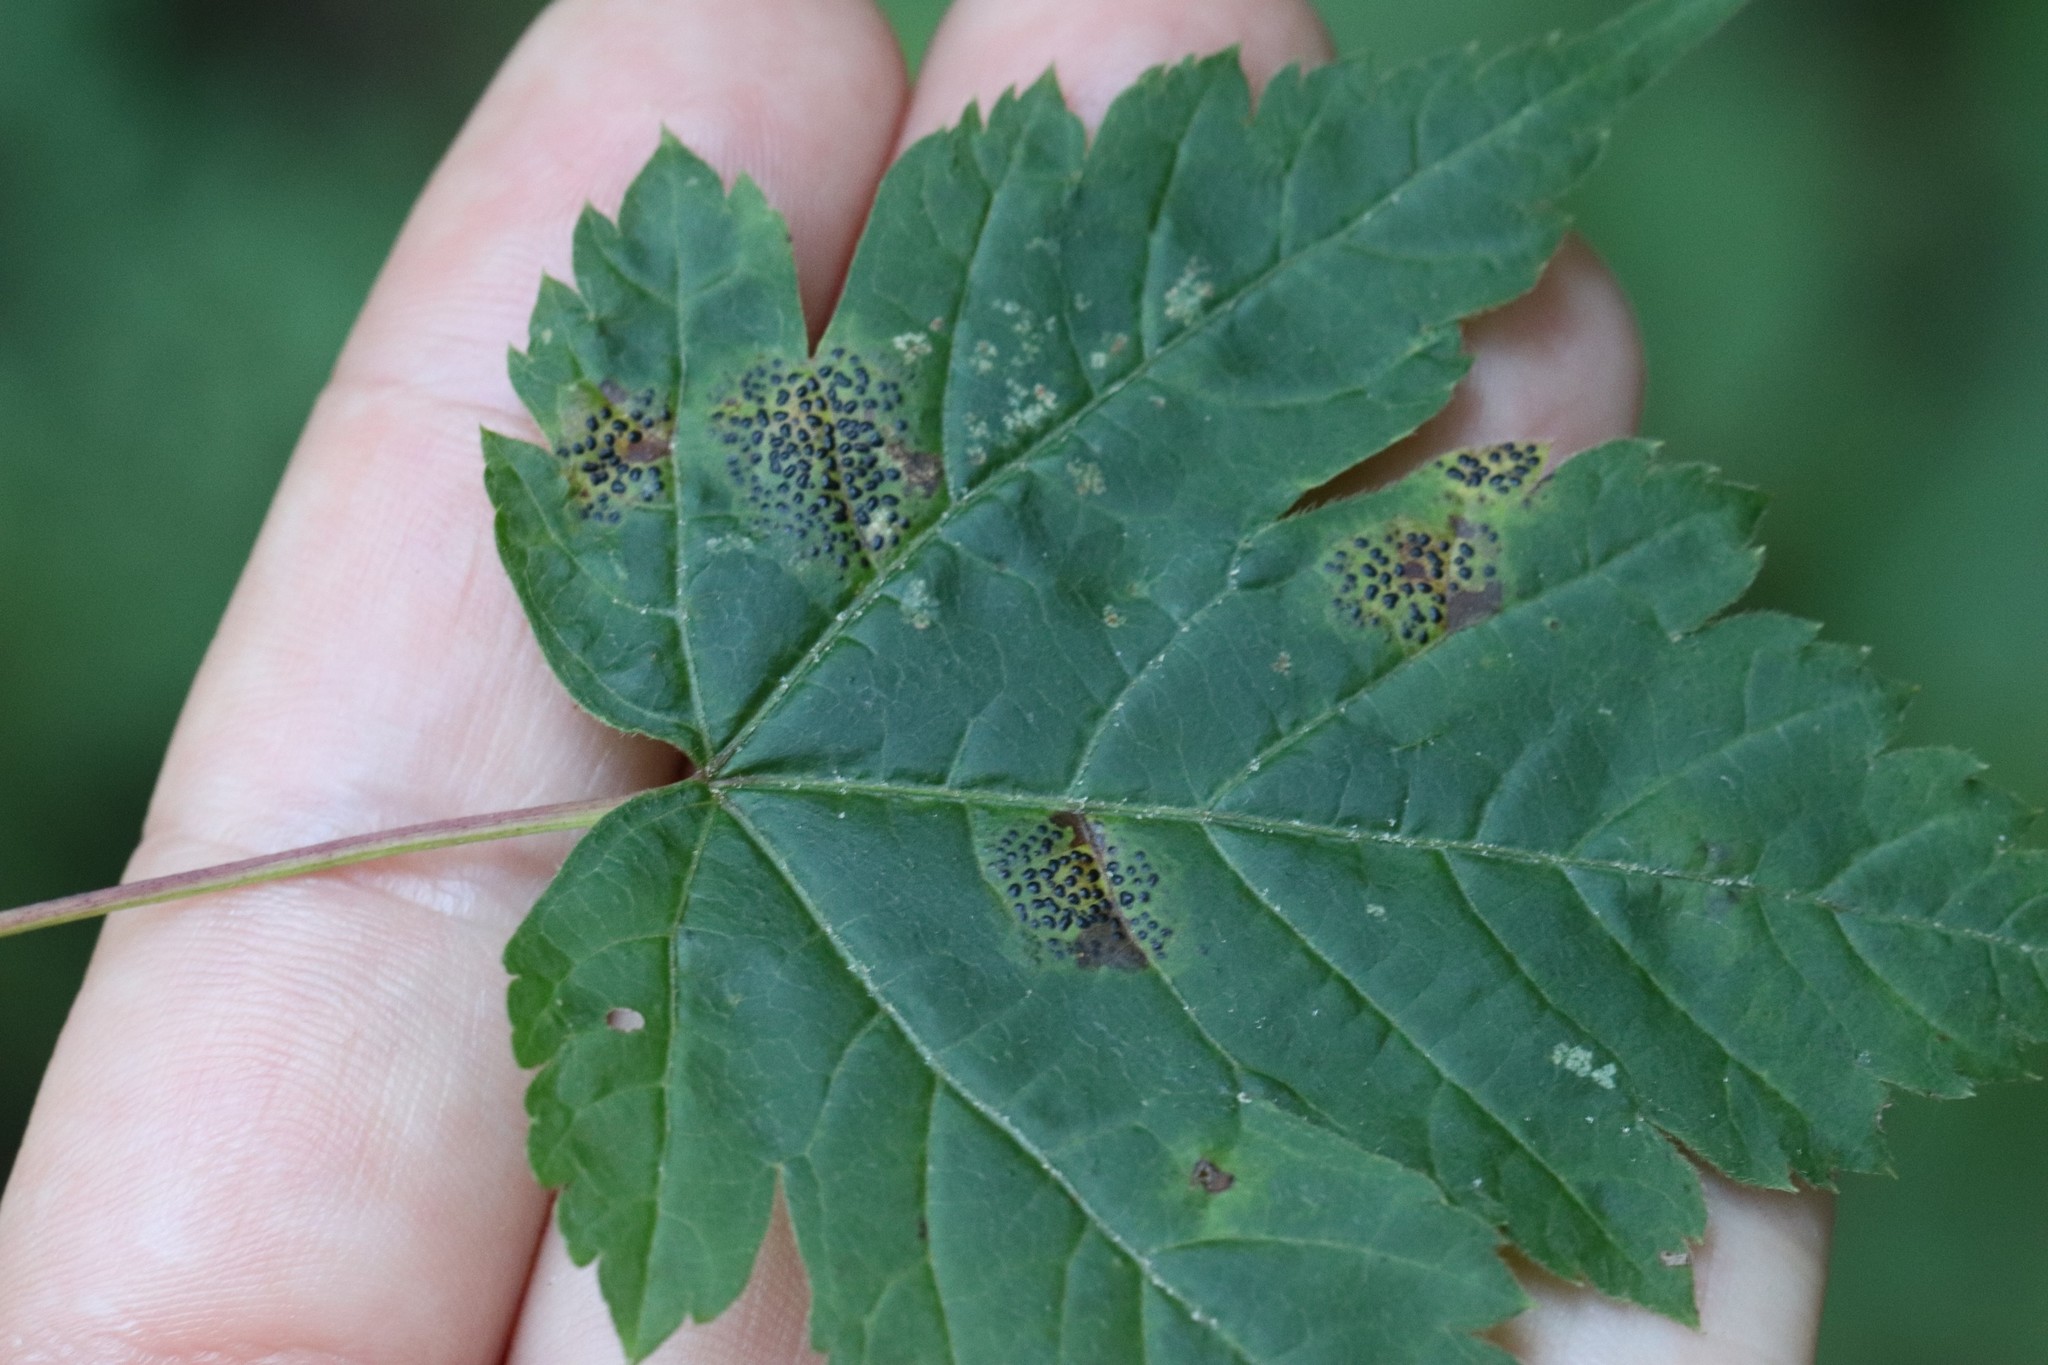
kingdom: Fungi
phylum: Ascomycota
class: Leotiomycetes
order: Rhytismatales
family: Rhytismataceae
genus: Rhytisma
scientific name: Rhytisma punctatum
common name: Speckled tar spot
